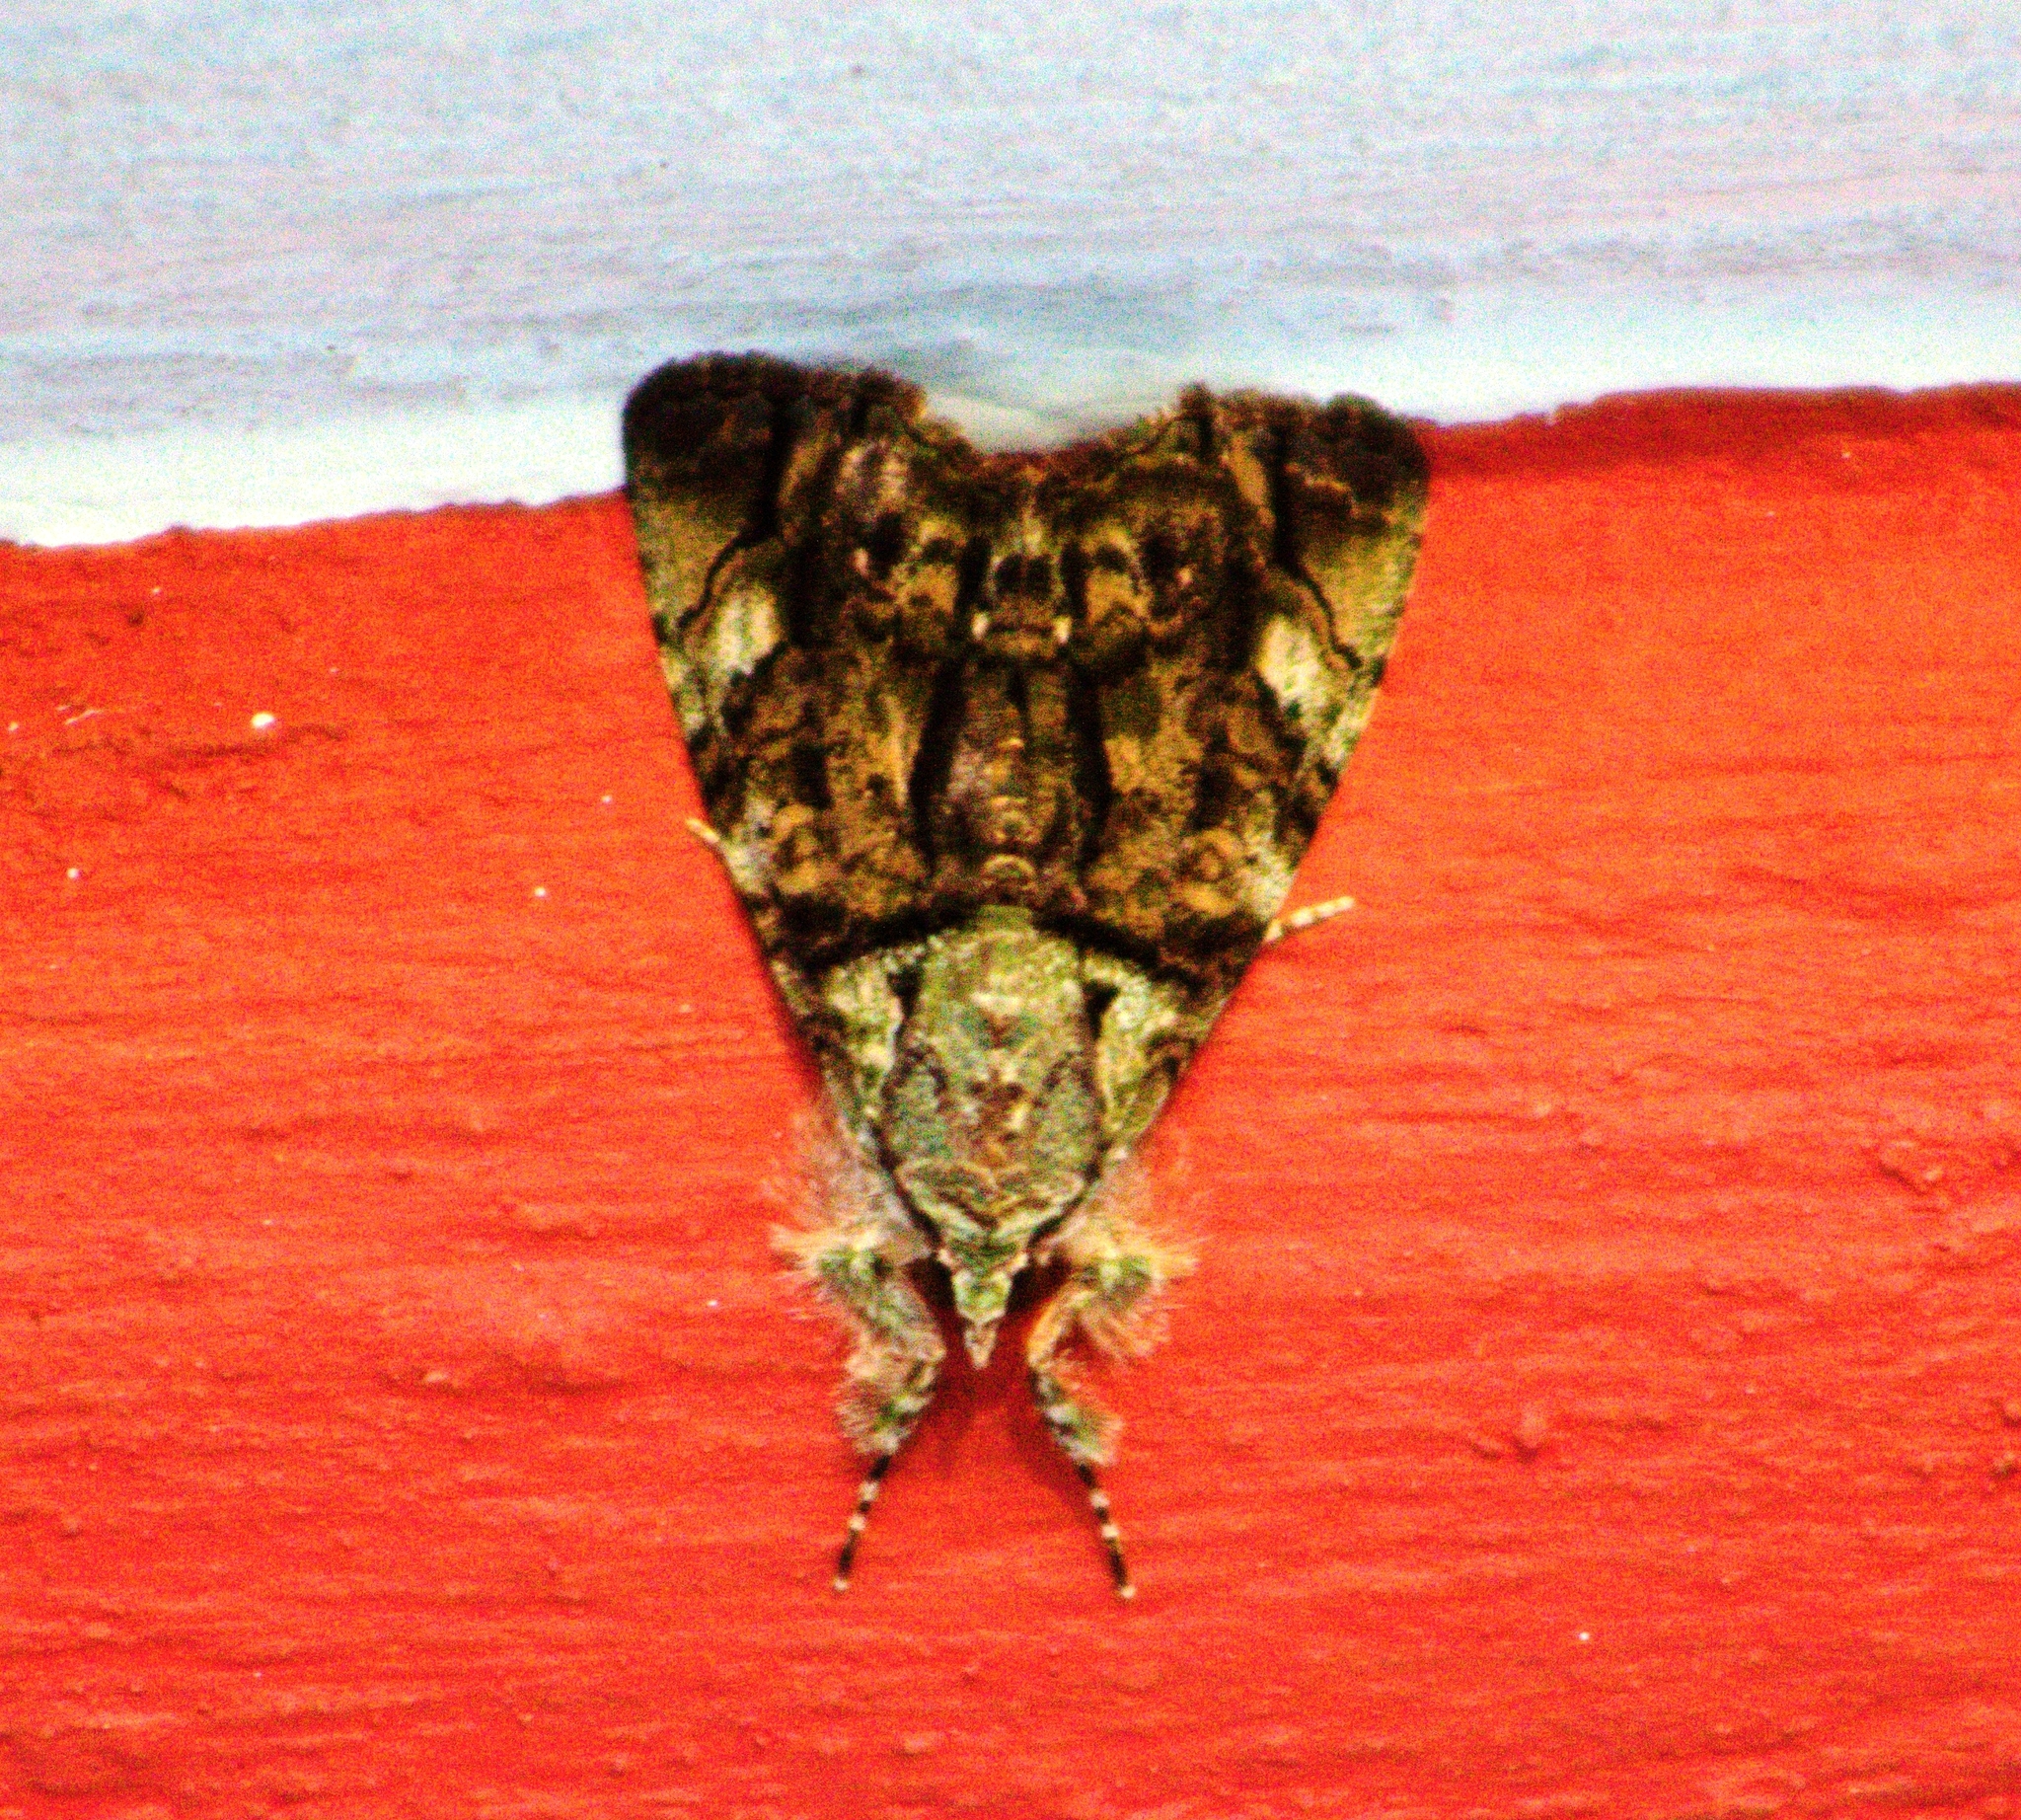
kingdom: Animalia
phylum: Arthropoda
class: Insecta
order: Lepidoptera
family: Noctuidae
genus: Neophaenis
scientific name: Neophaenis boucheri
